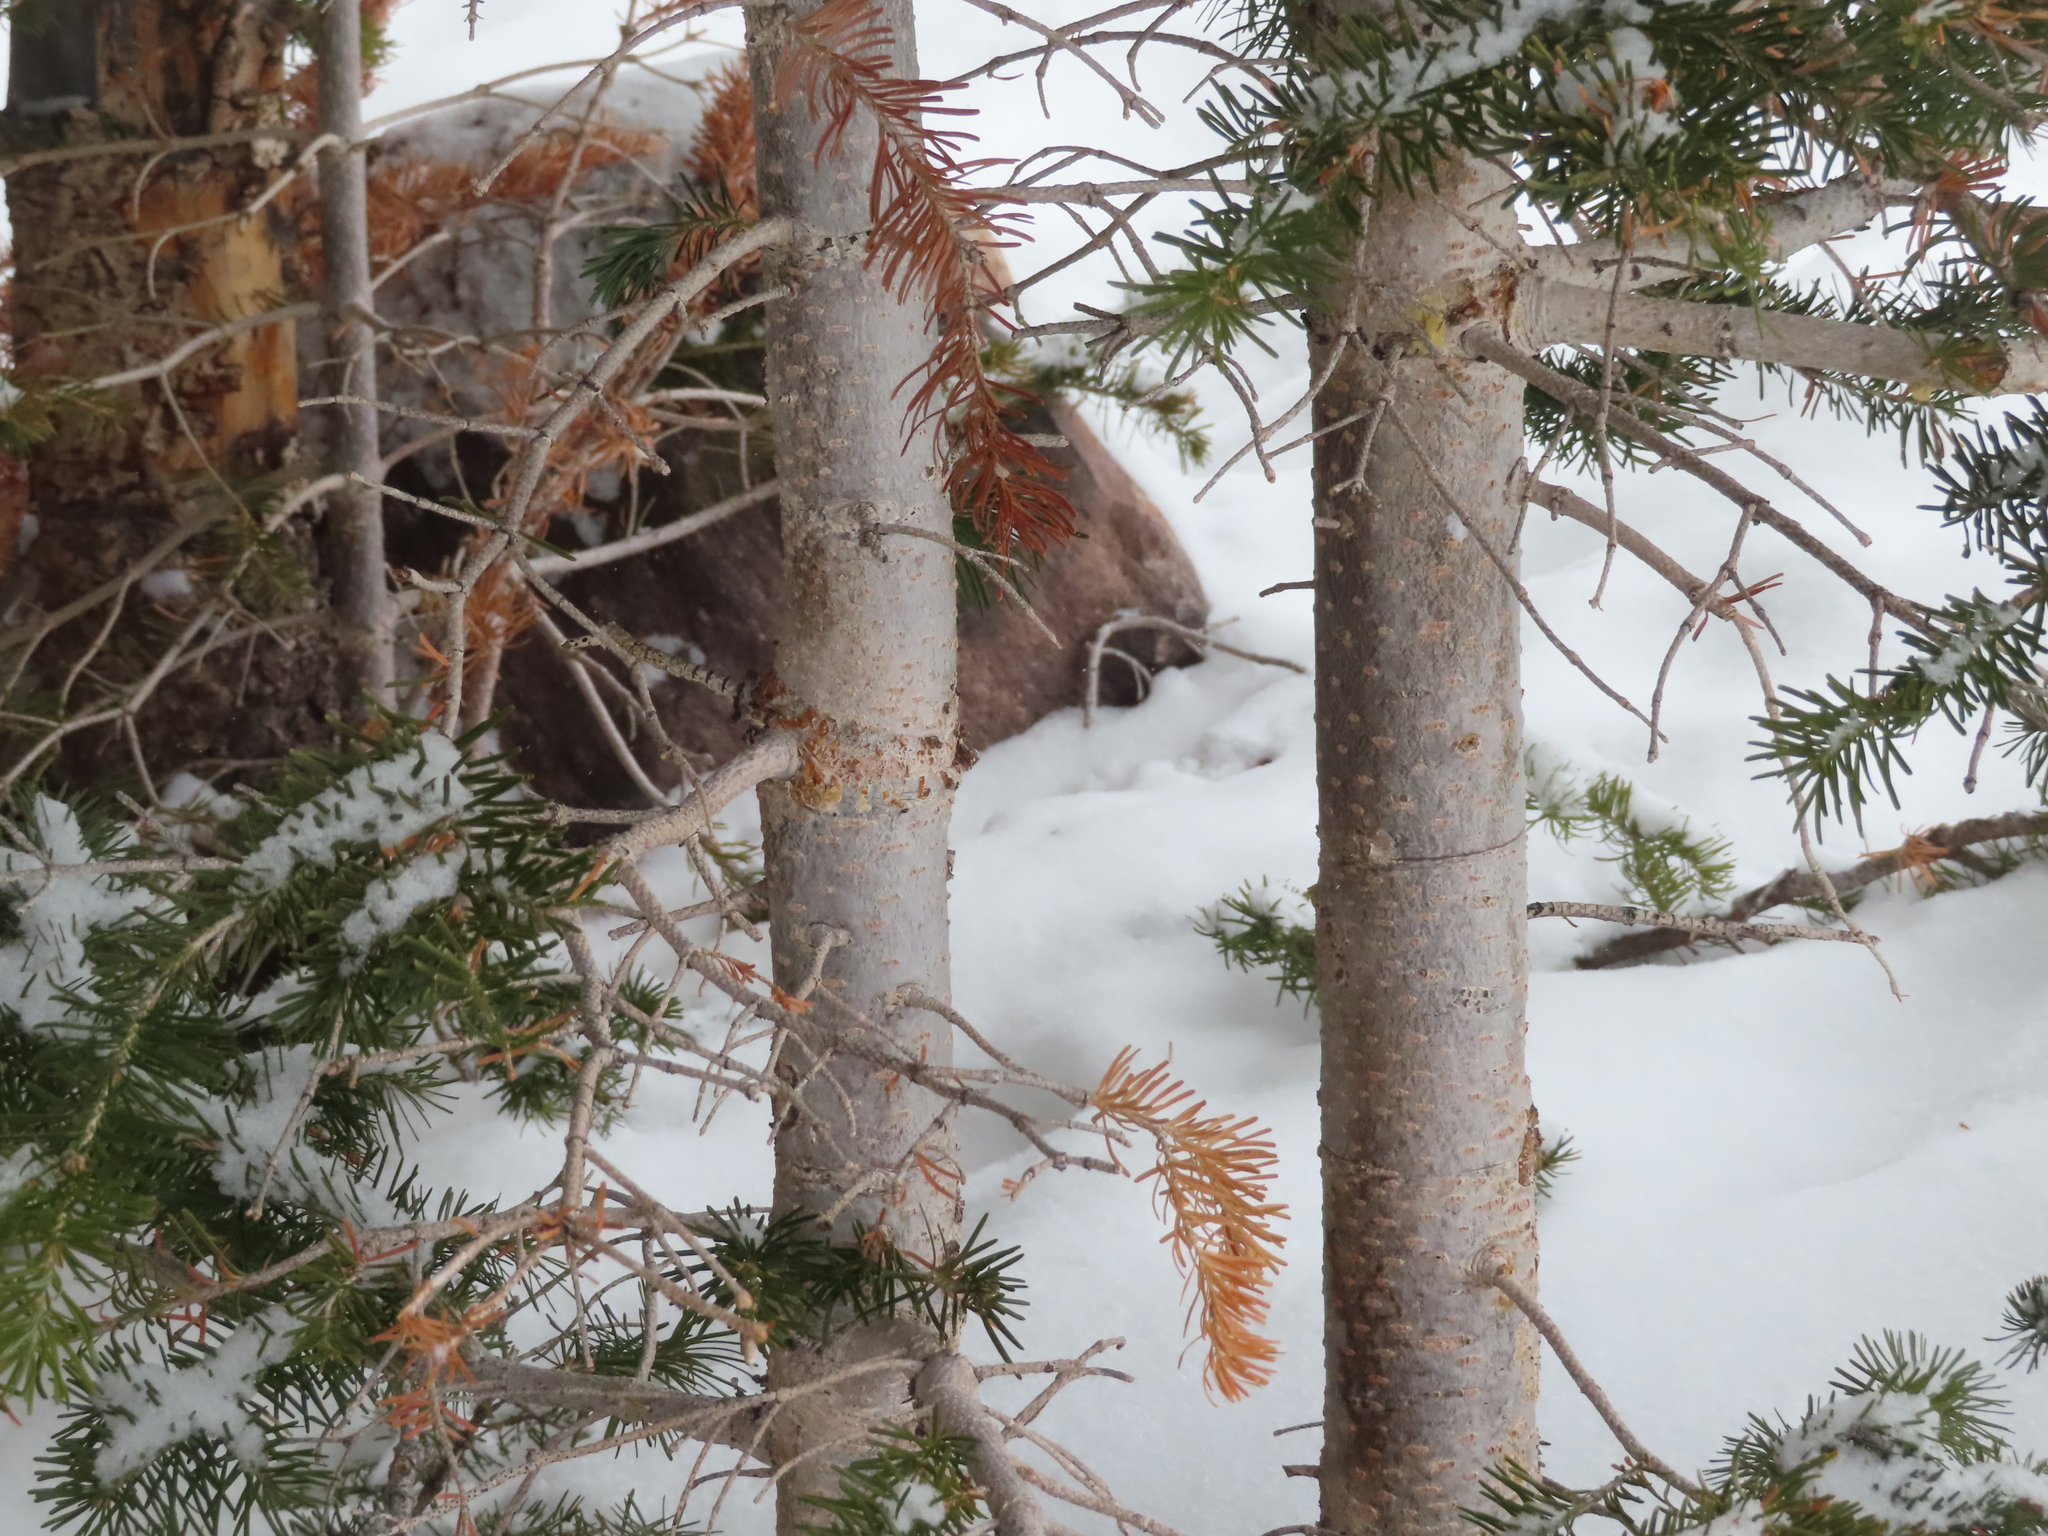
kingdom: Plantae
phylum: Tracheophyta
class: Pinopsida
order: Pinales
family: Pinaceae
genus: Abies
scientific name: Abies lasiocarpa
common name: Subalpine fir
